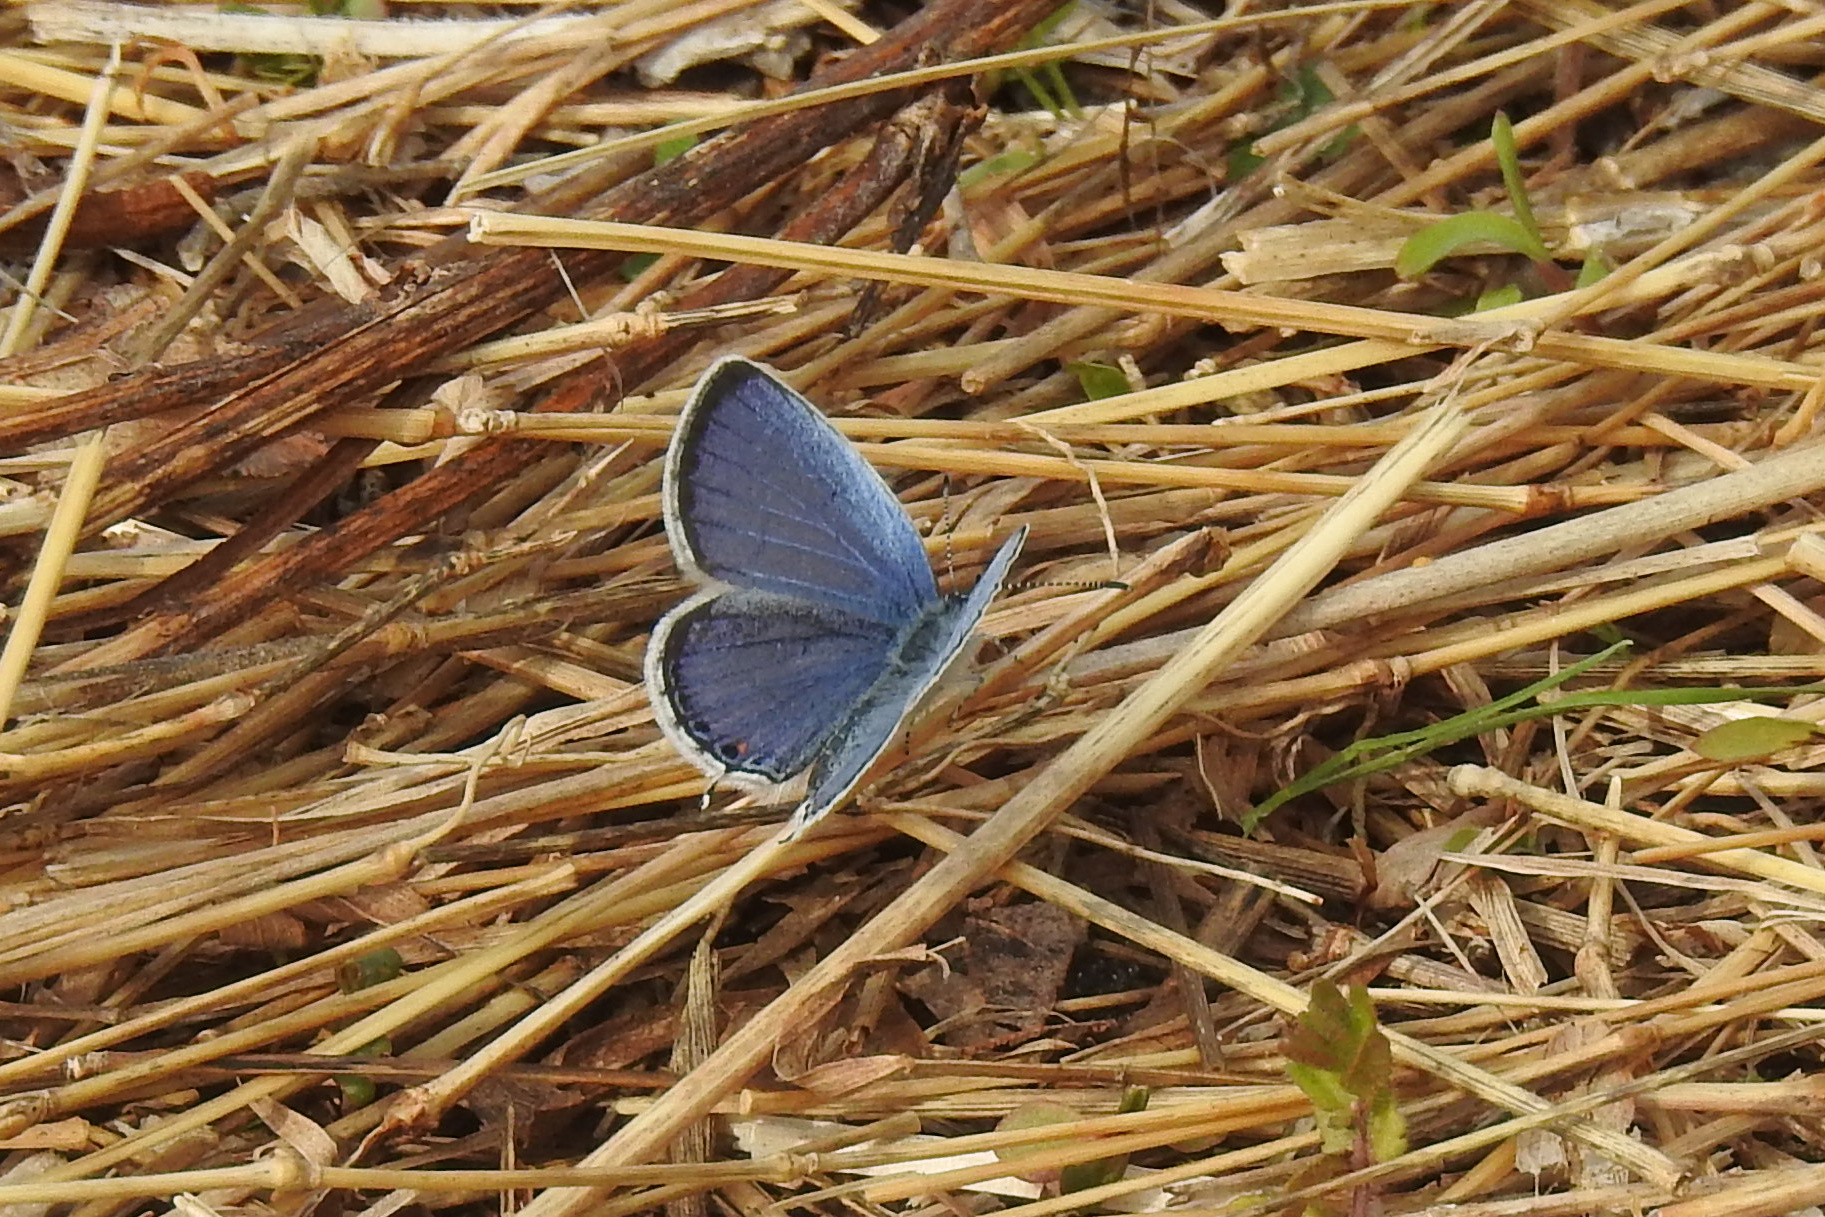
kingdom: Animalia
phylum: Arthropoda
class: Insecta
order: Lepidoptera
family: Lycaenidae
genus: Elkalyce
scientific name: Elkalyce comyntas
